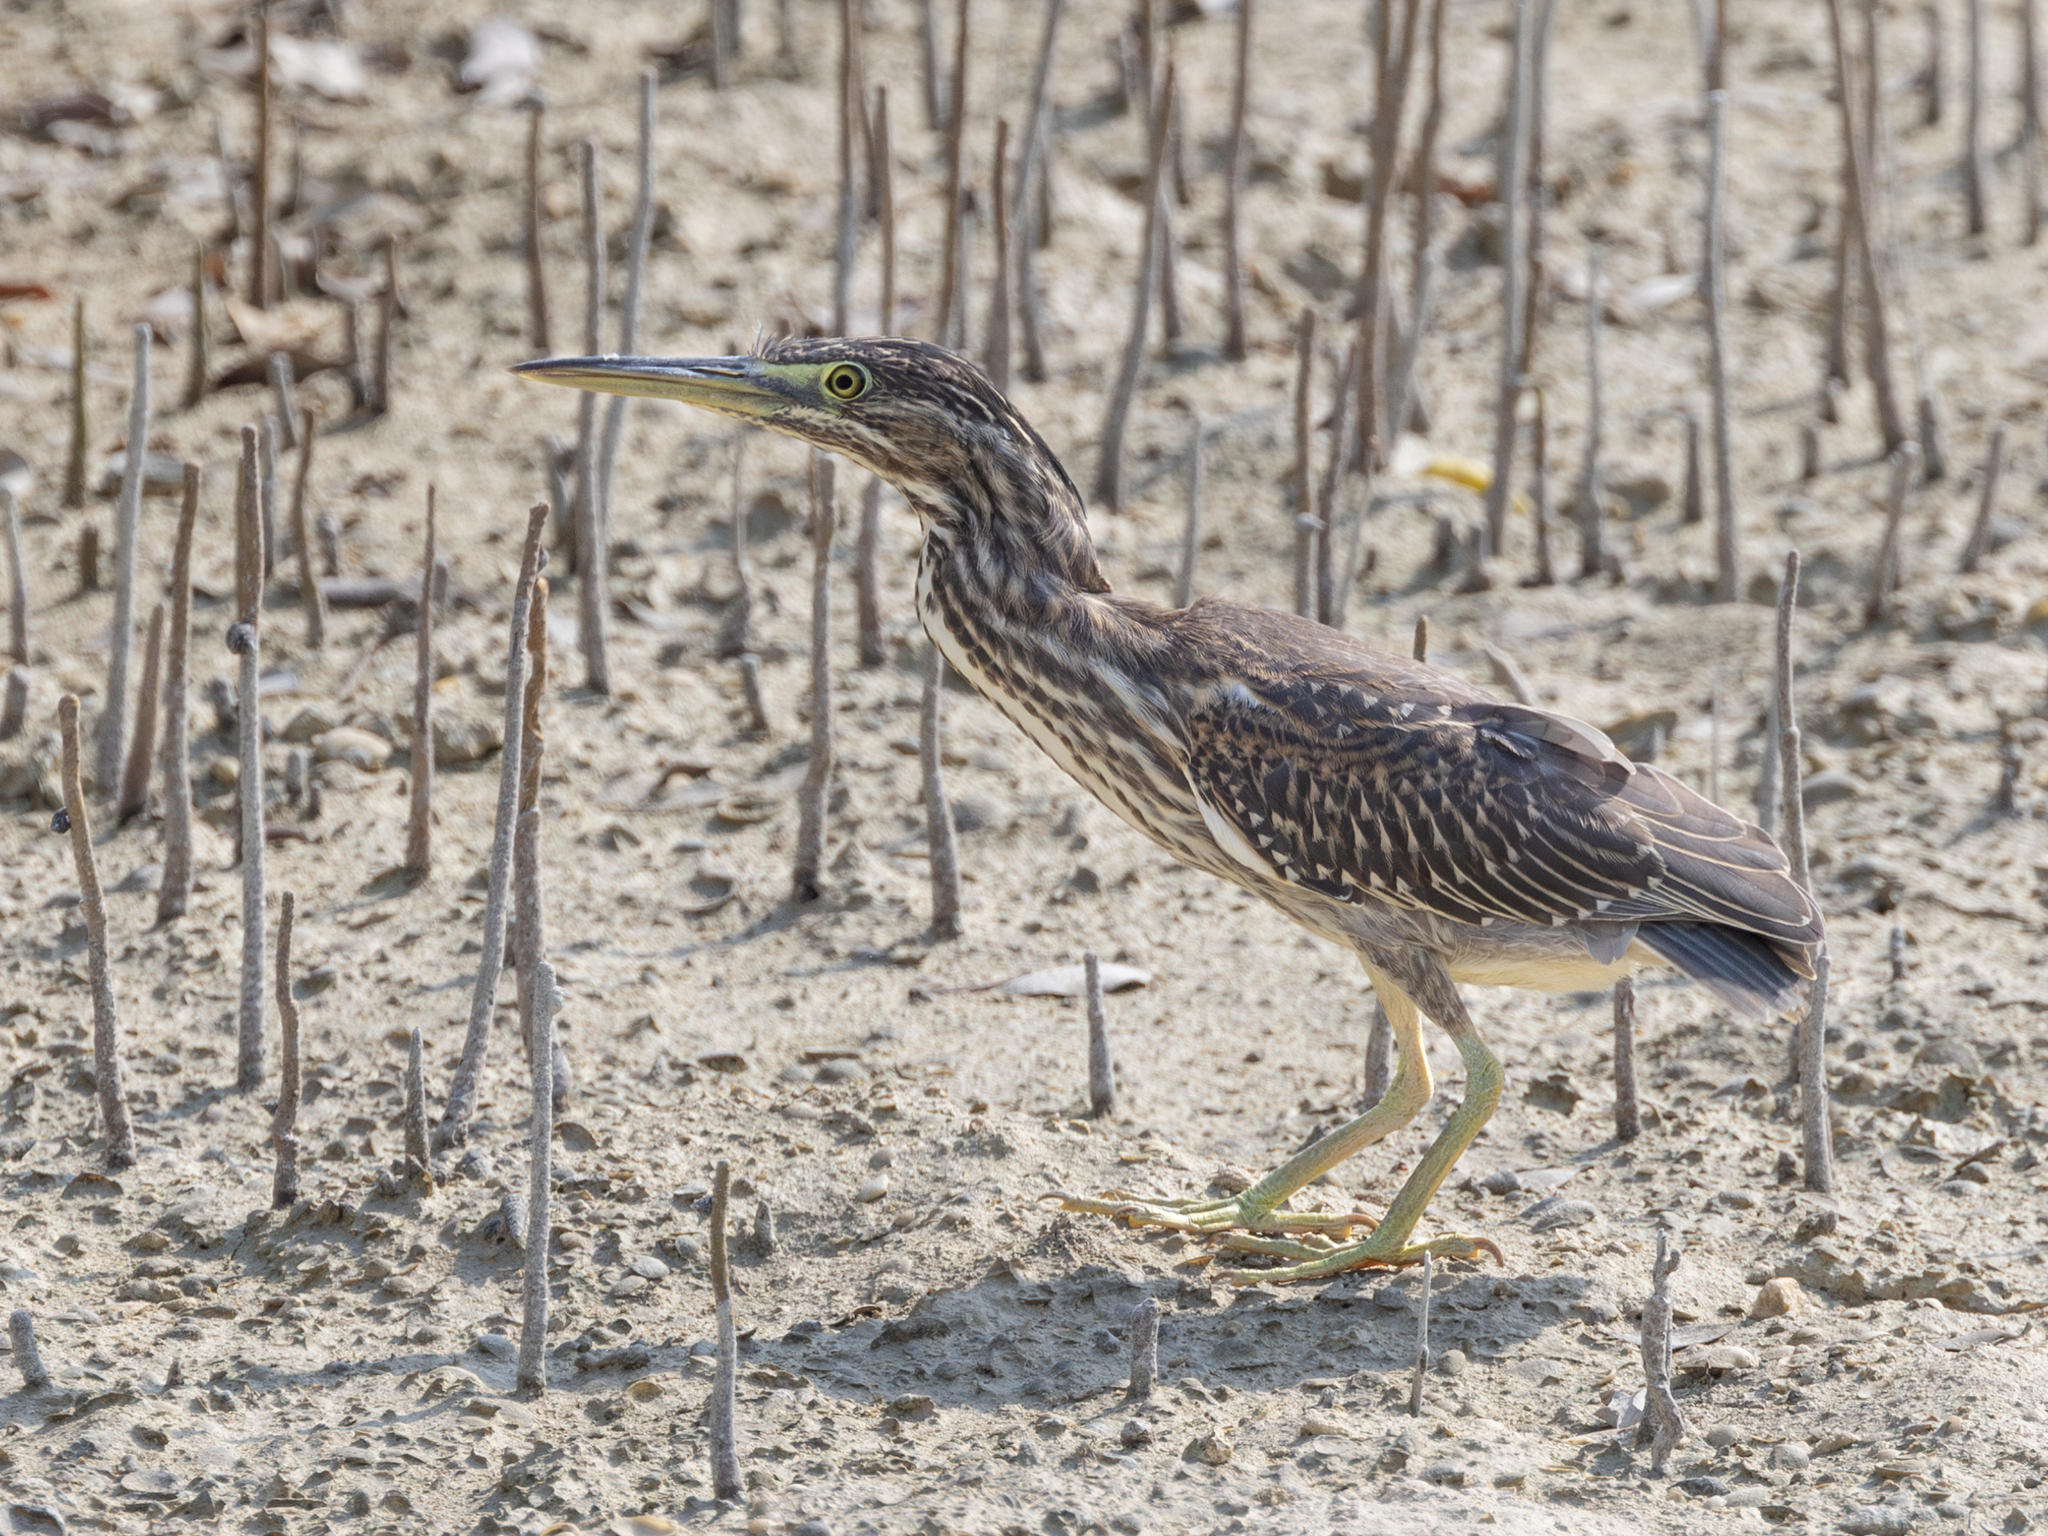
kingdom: Animalia
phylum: Chordata
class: Aves
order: Pelecaniformes
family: Ardeidae
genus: Butorides
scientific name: Butorides striata
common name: Striated heron
